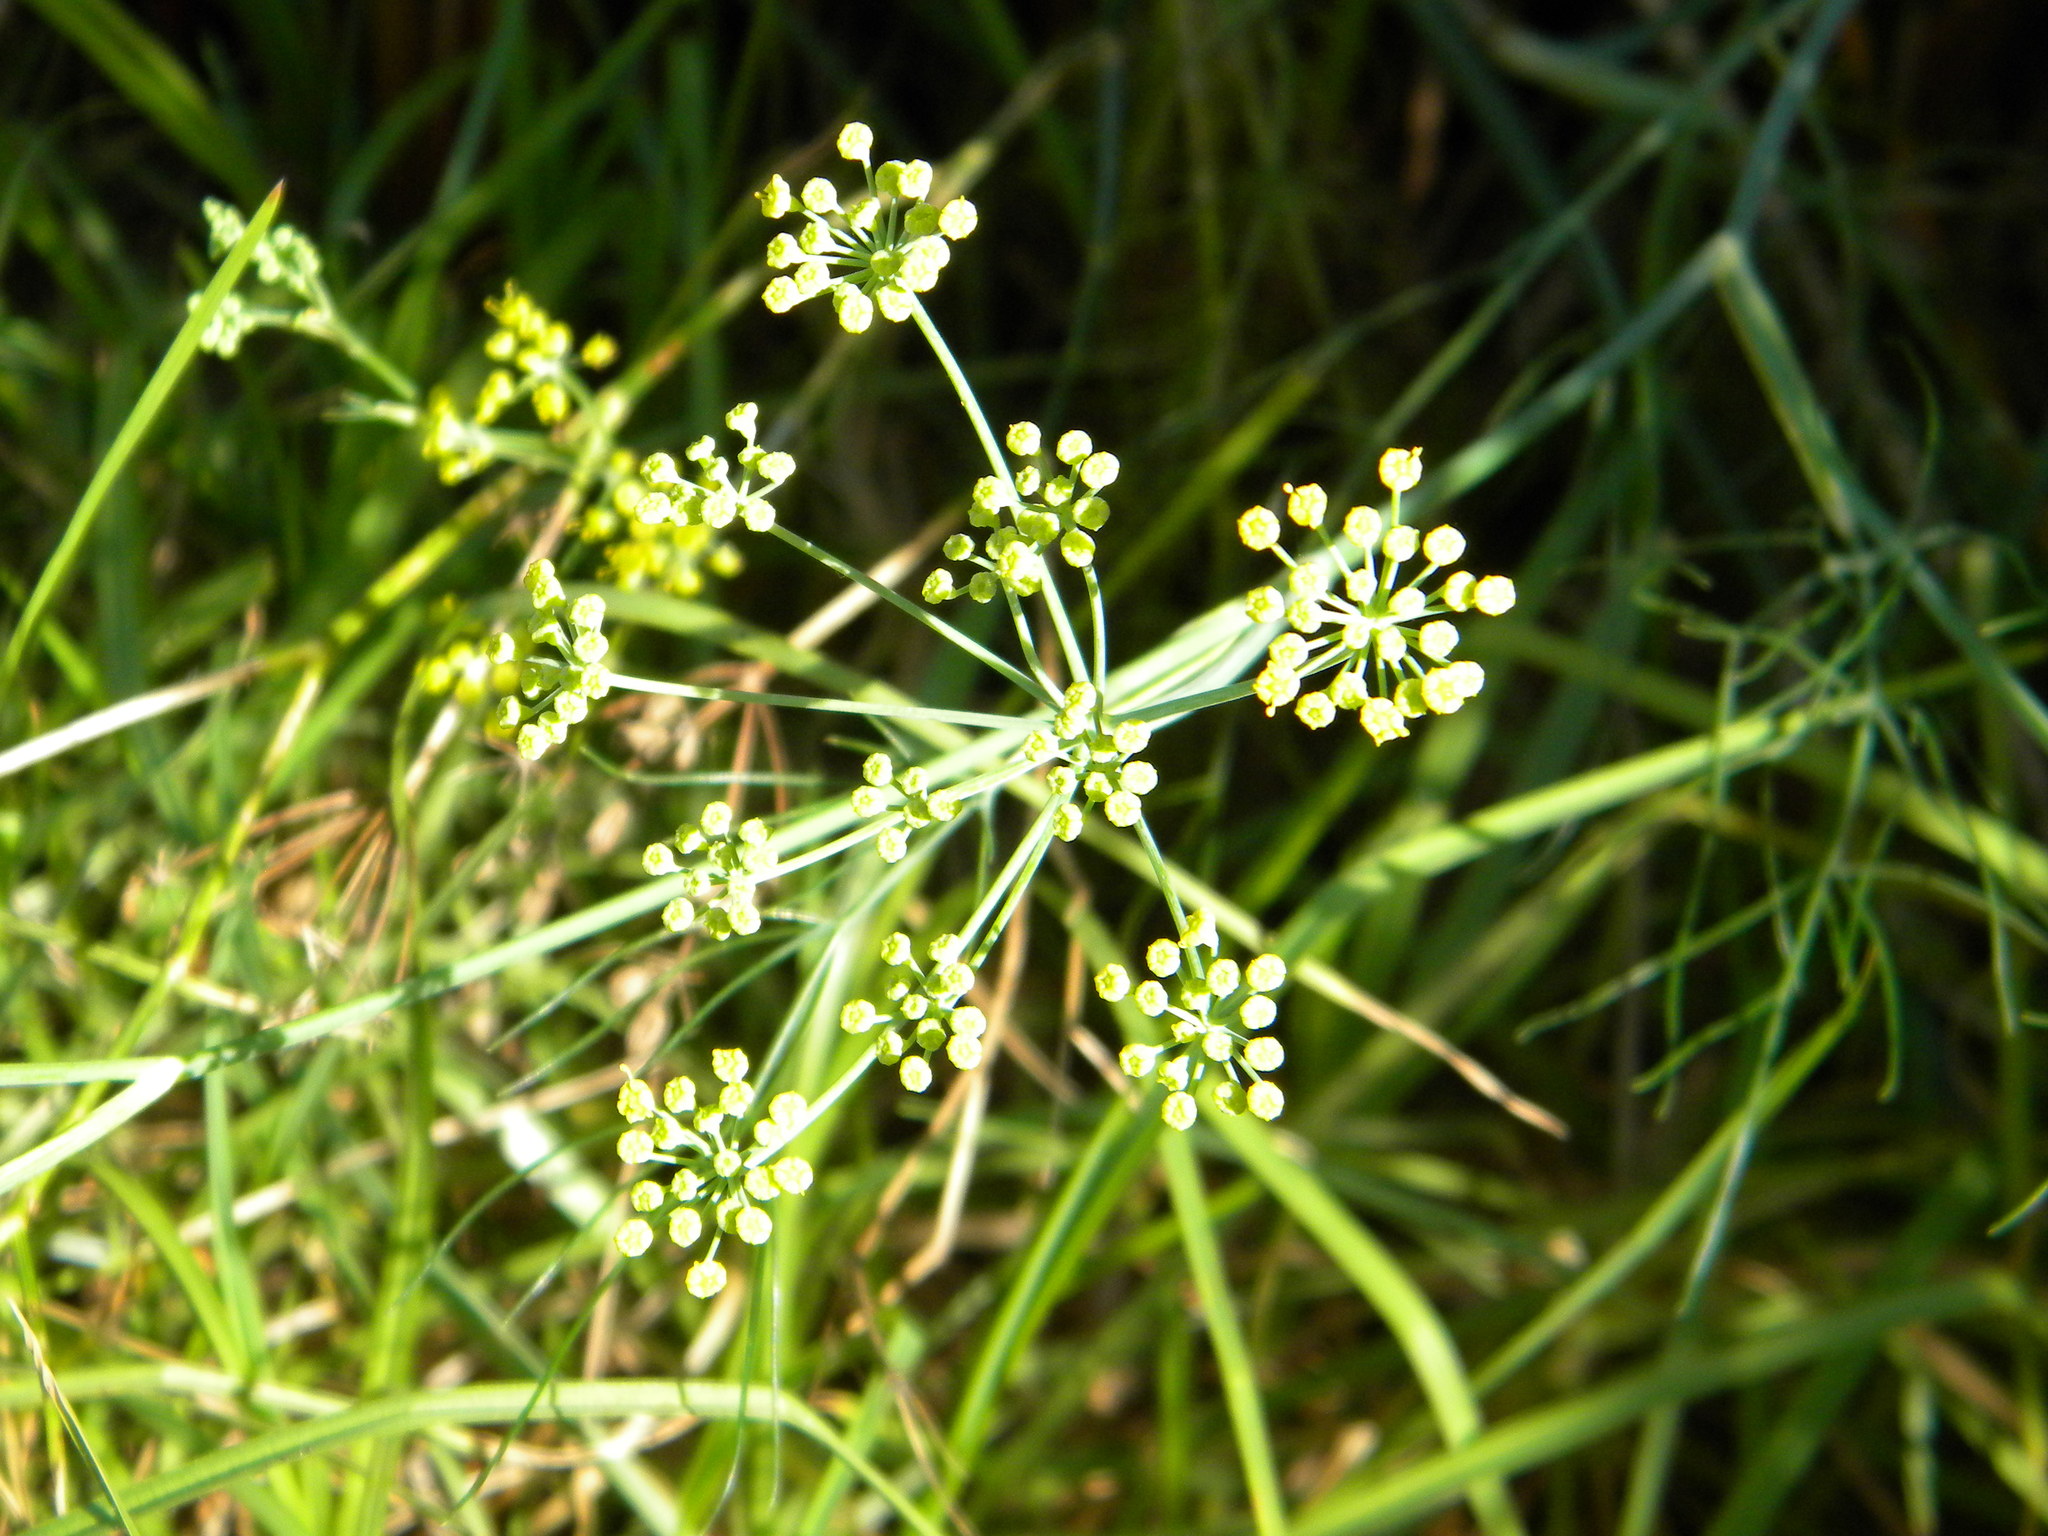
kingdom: Plantae
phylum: Tracheophyta
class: Magnoliopsida
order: Apiales
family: Apiaceae
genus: Foeniculum
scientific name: Foeniculum vulgare
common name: Fennel
